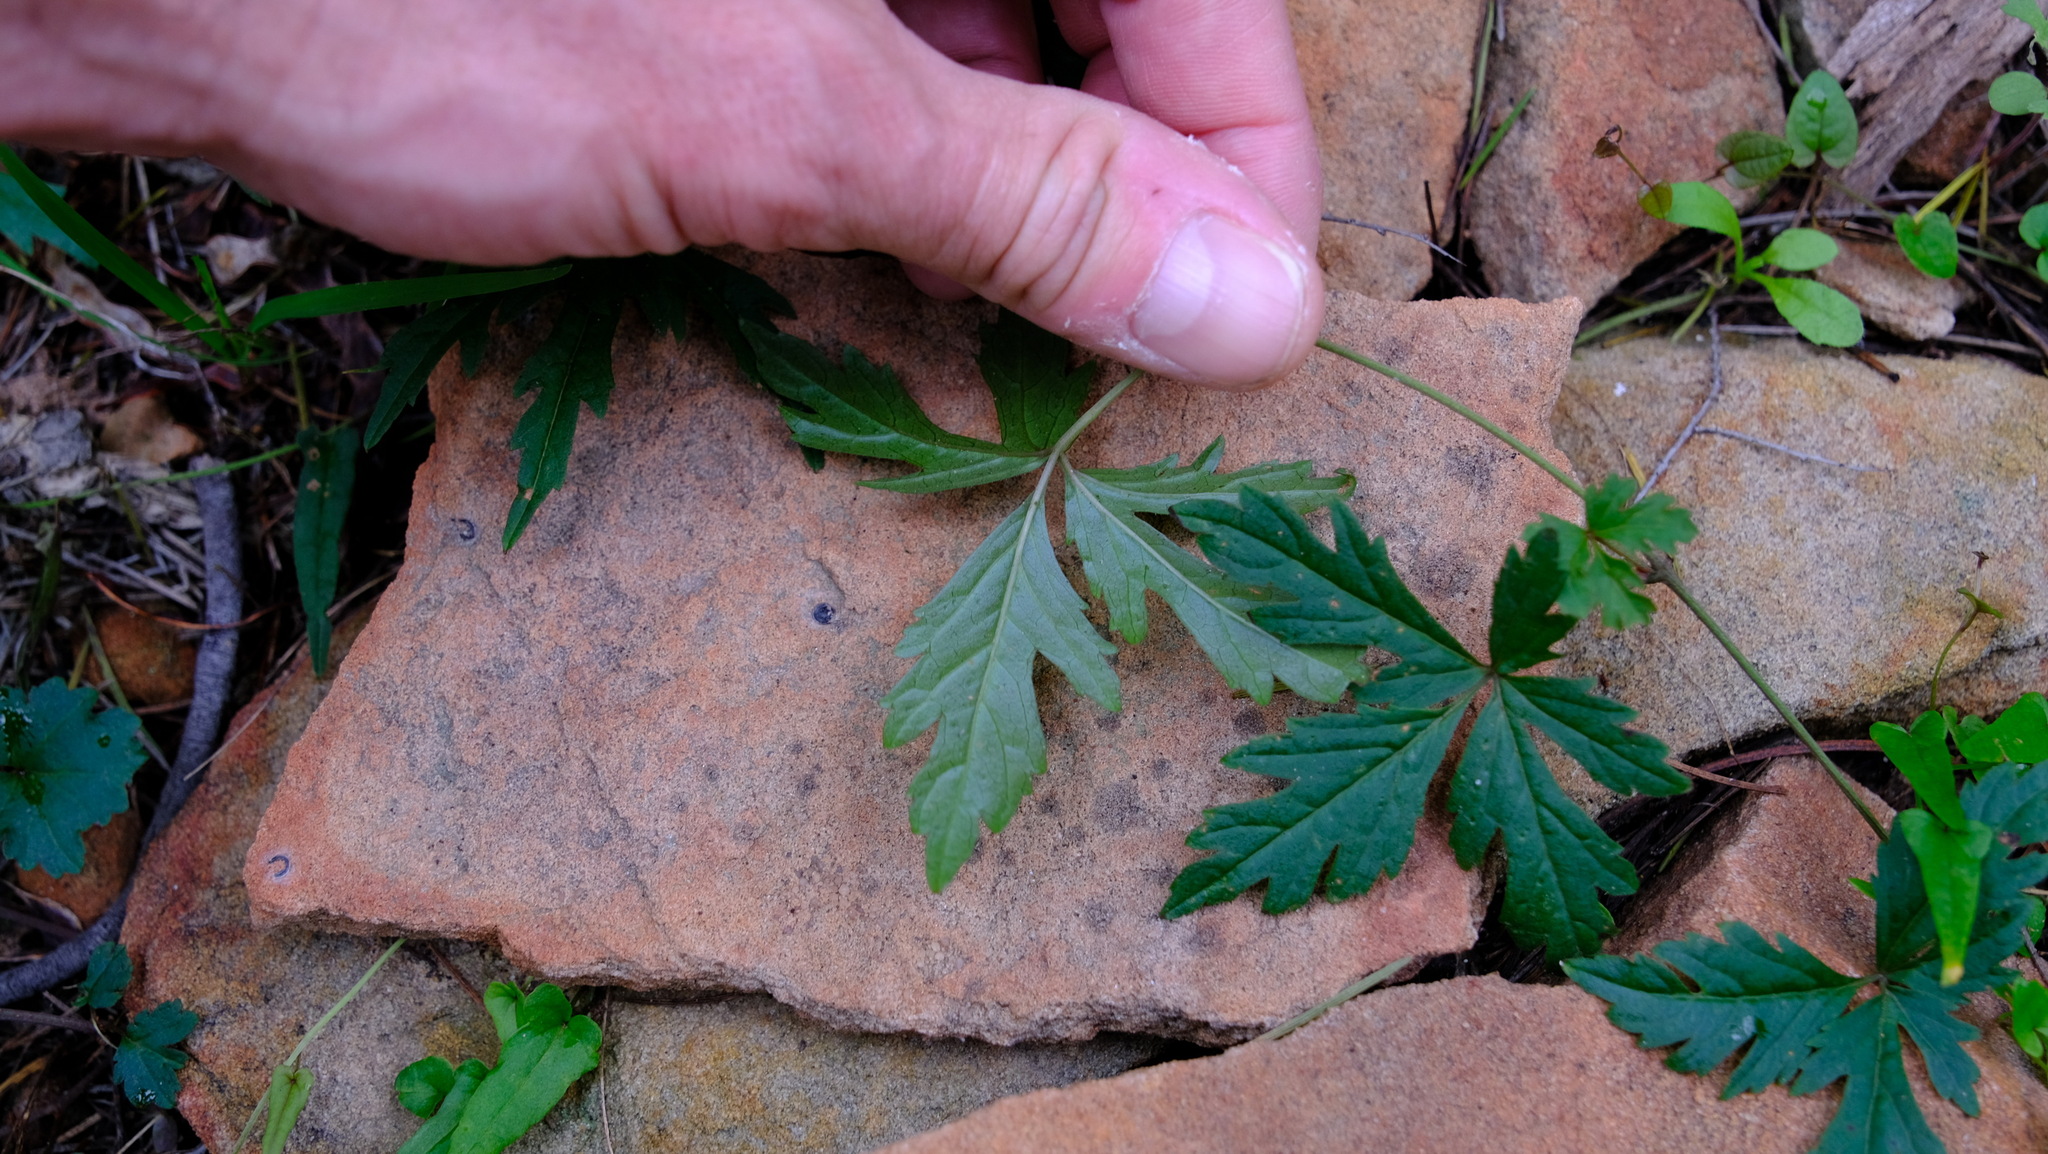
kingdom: Plantae
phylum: Tracheophyta
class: Magnoliopsida
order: Vitales
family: Vitaceae
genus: Clematicissus
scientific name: Clematicissus angustissima
